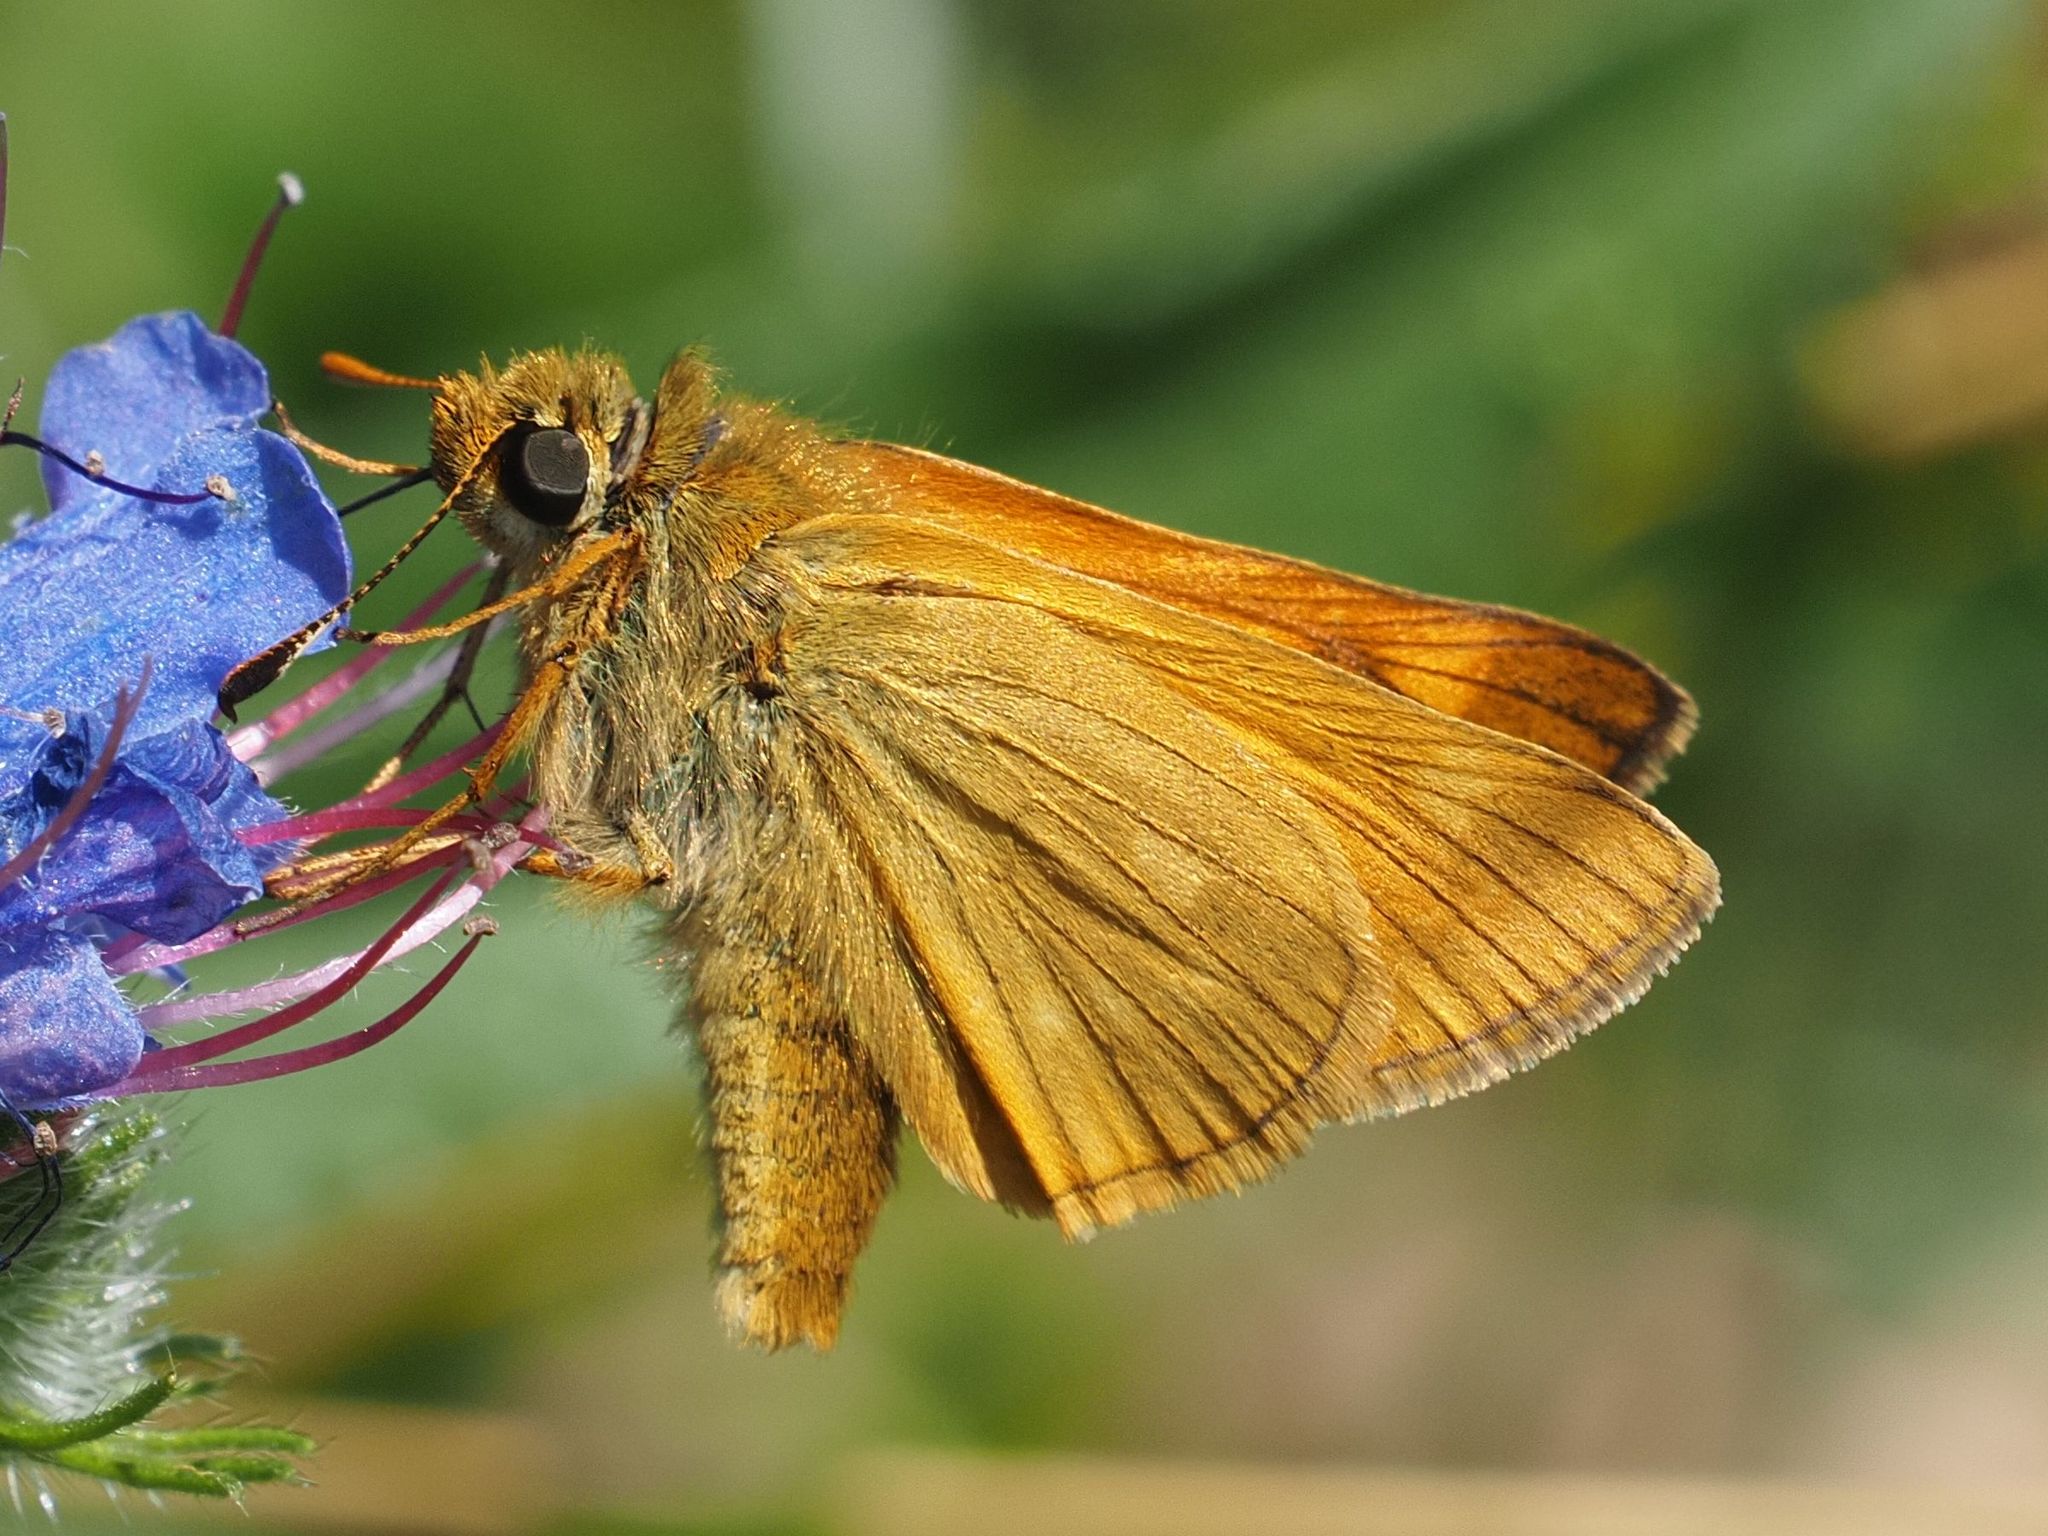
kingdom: Animalia
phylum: Arthropoda
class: Insecta
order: Lepidoptera
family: Hesperiidae
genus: Ochlodes
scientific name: Ochlodes venata
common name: Large skipper
